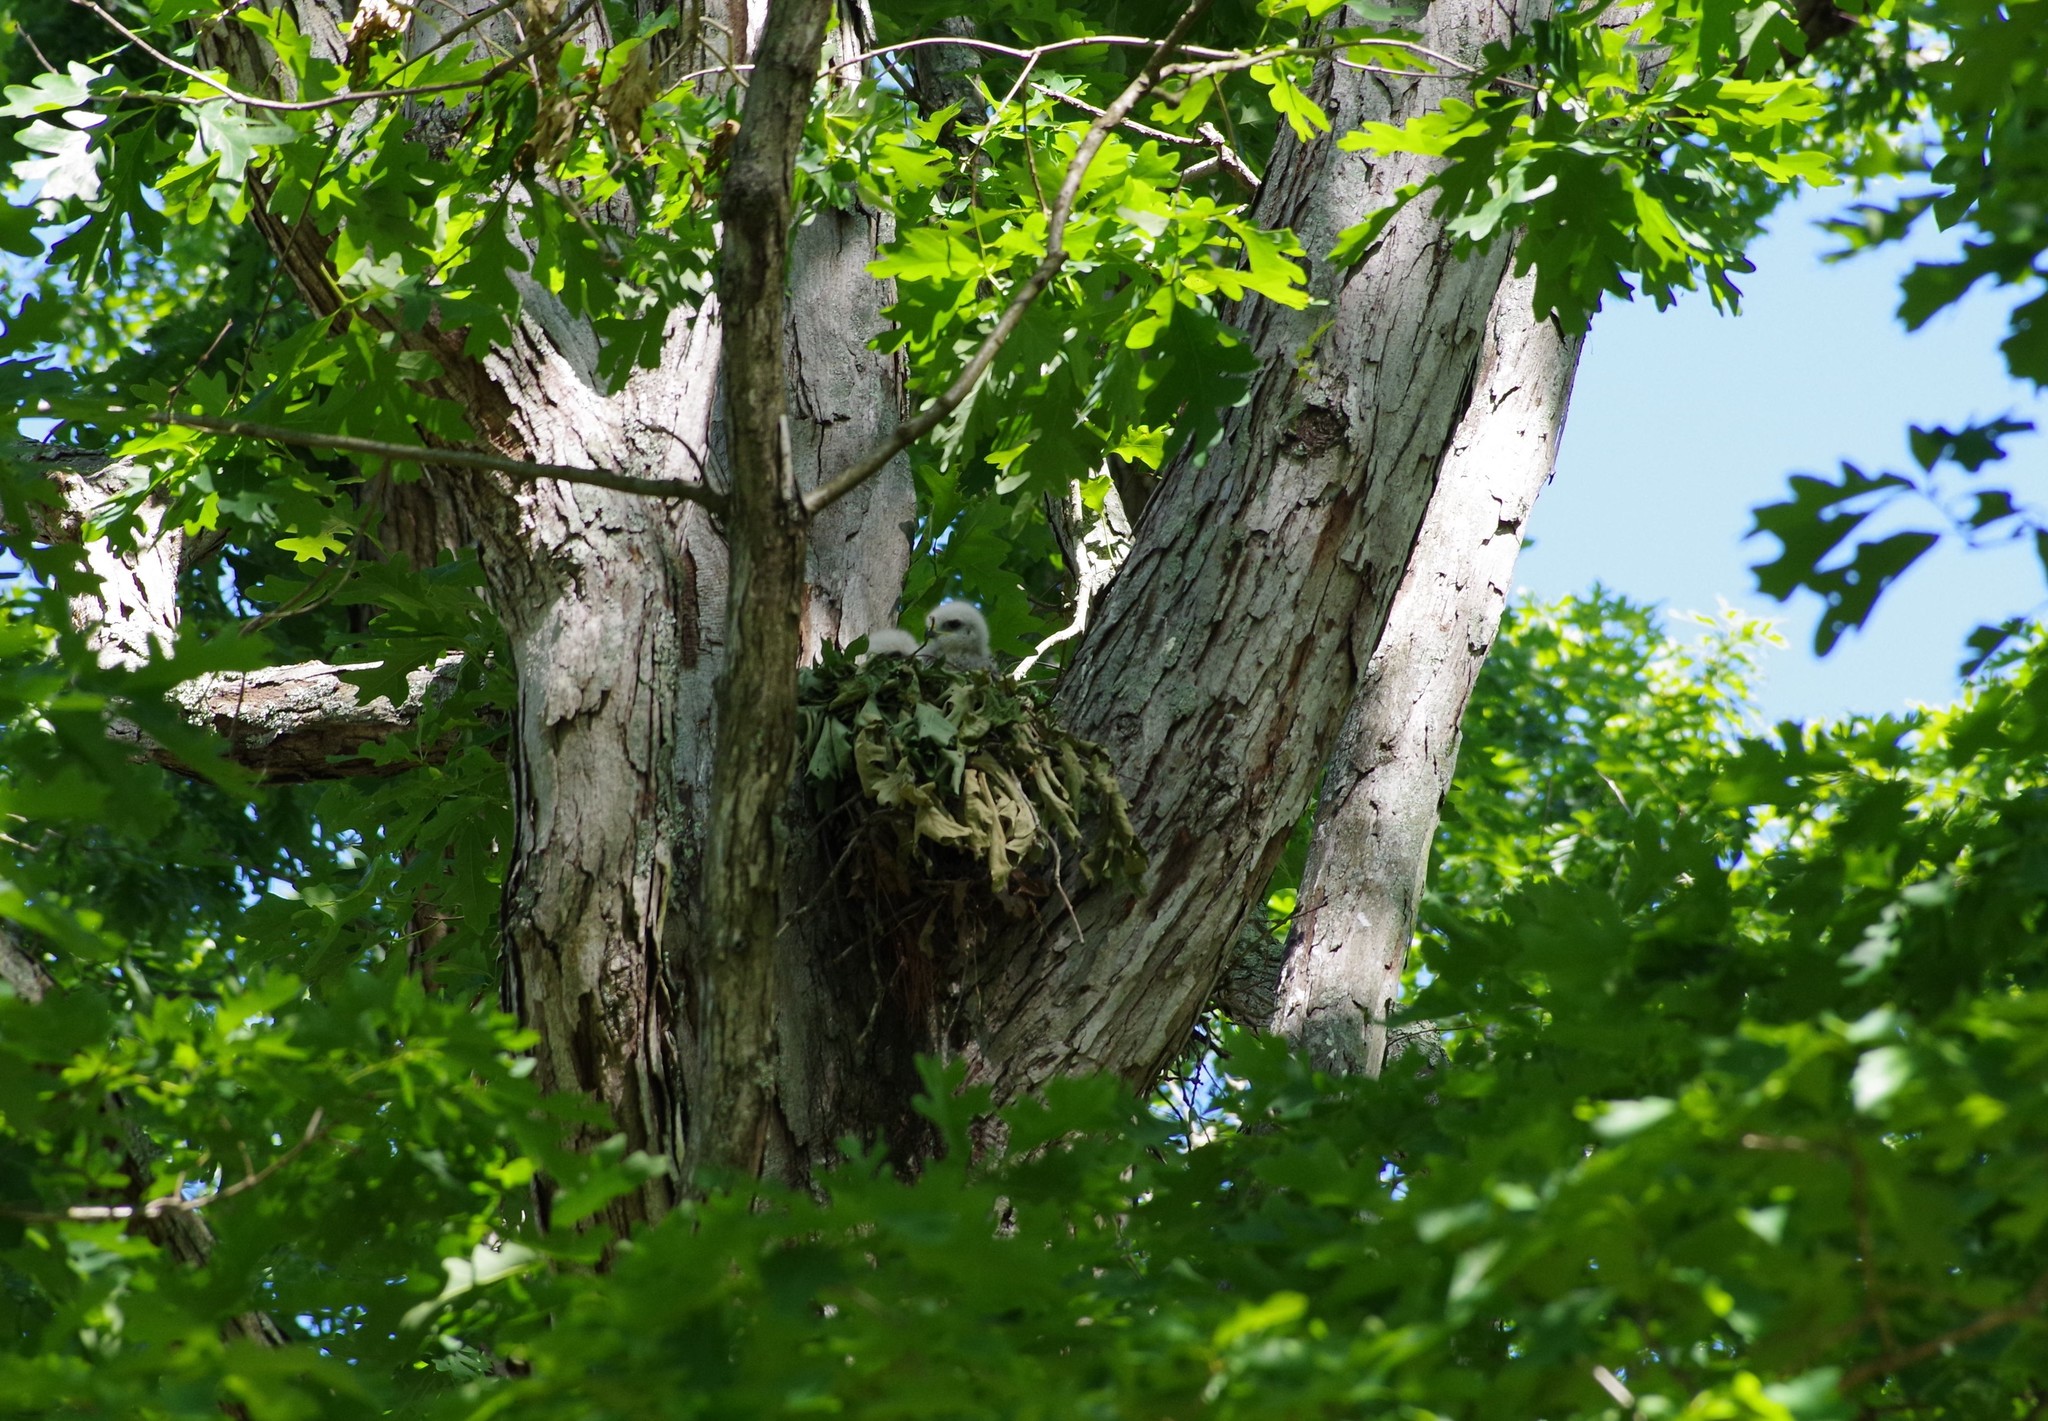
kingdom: Animalia
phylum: Chordata
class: Aves
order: Accipitriformes
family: Accipitridae
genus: Buteo
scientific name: Buteo lineatus
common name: Red-shouldered hawk
